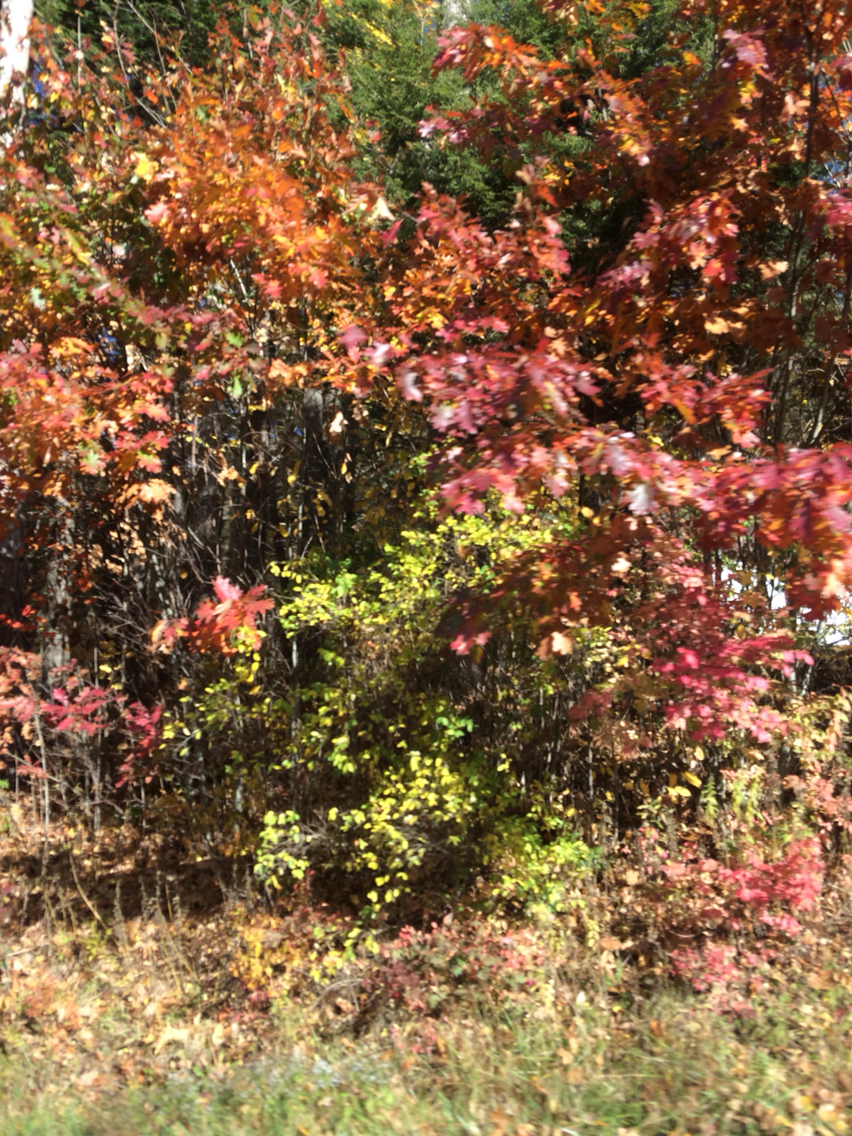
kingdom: Plantae
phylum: Tracheophyta
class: Magnoliopsida
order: Fagales
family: Fagaceae
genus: Quercus
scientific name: Quercus rubra
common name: Red oak
